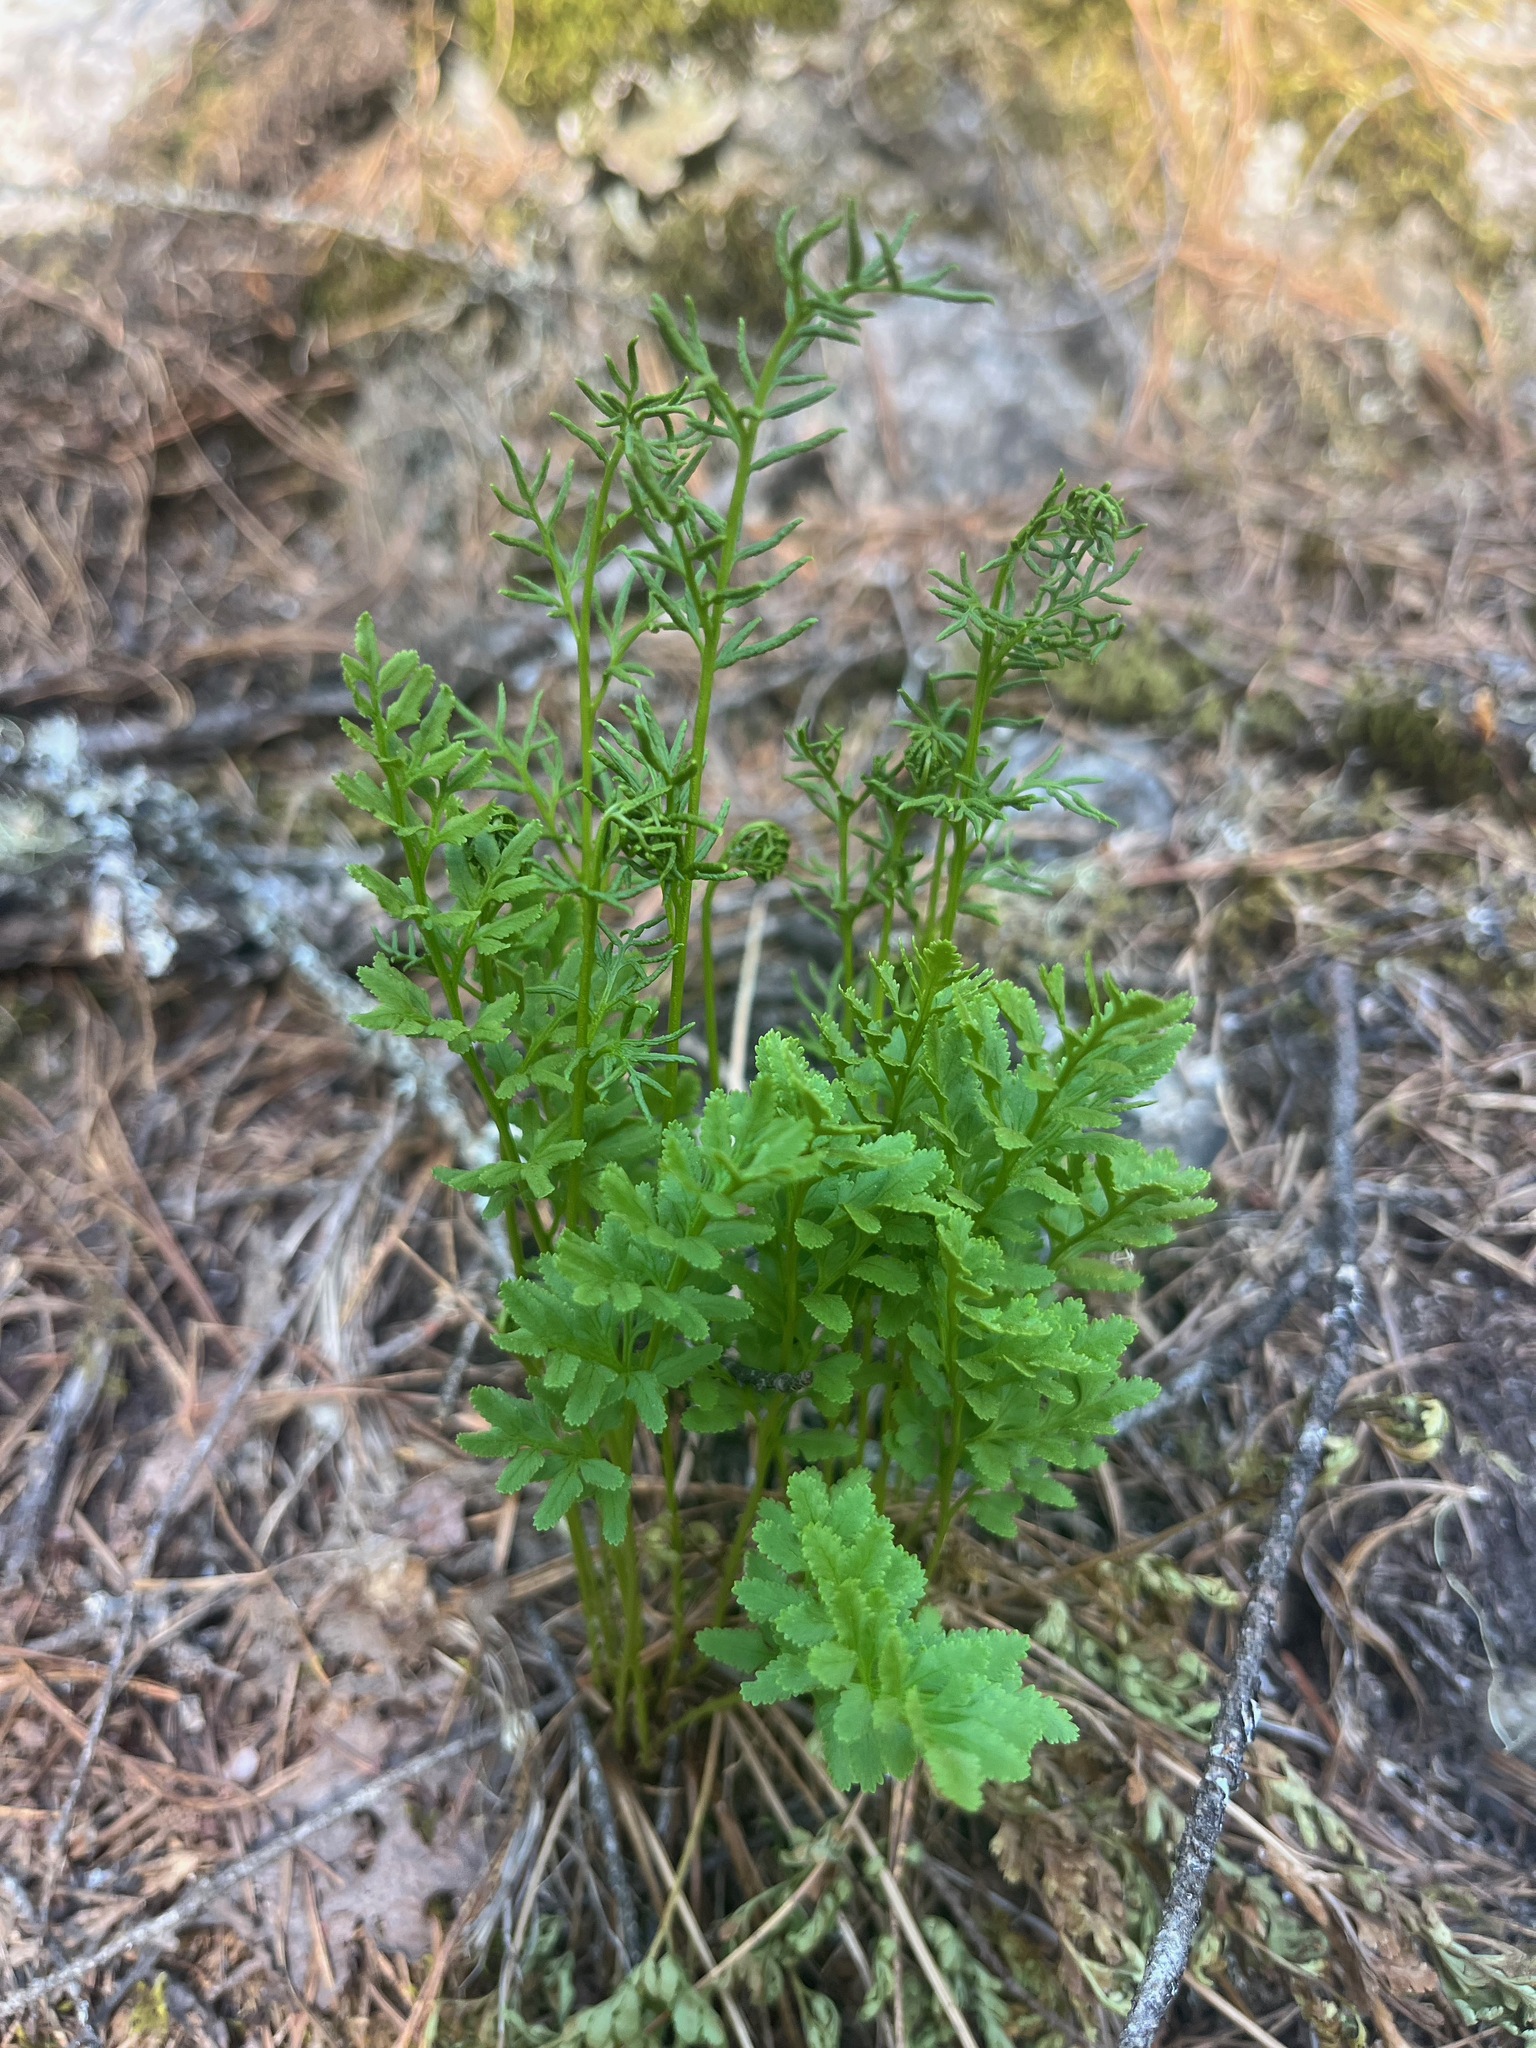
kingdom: Plantae
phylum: Tracheophyta
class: Polypodiopsida
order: Polypodiales
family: Pteridaceae
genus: Cryptogramma
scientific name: Cryptogramma acrostichoides
